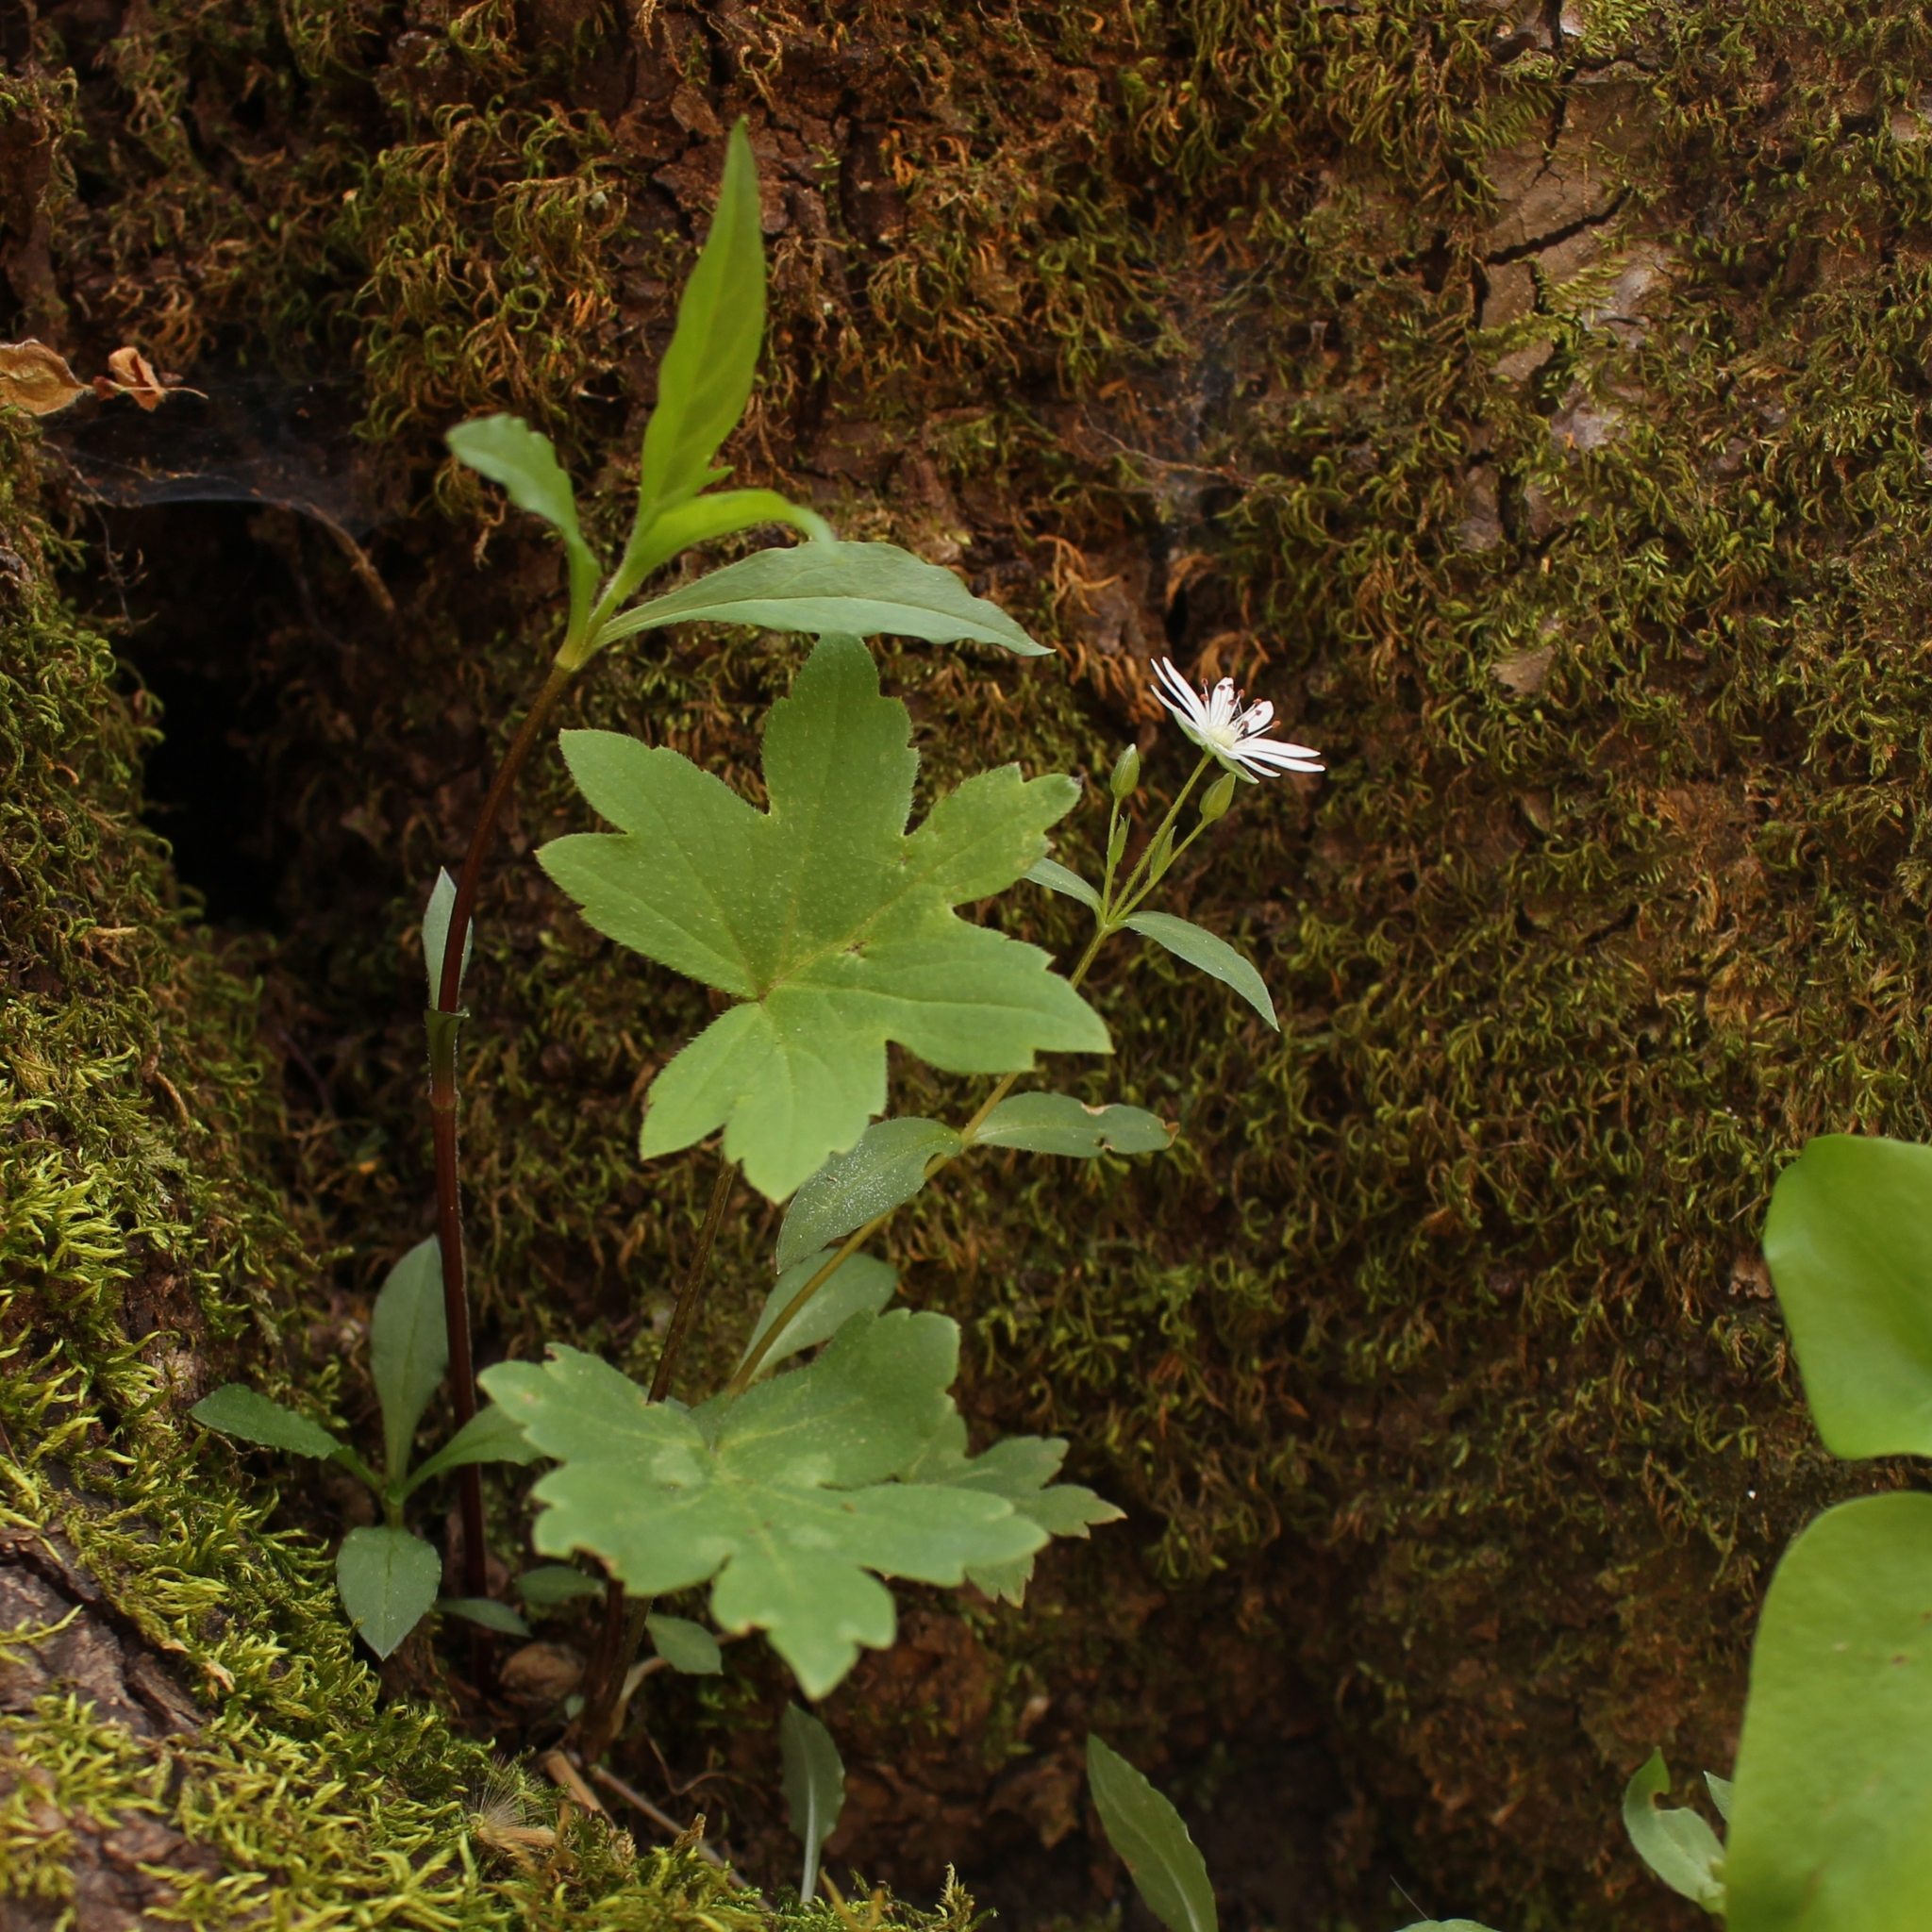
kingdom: Plantae
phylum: Tracheophyta
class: Magnoliopsida
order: Caryophyllales
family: Caryophyllaceae
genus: Stellaria
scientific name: Stellaria pubera
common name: Star chickweed
